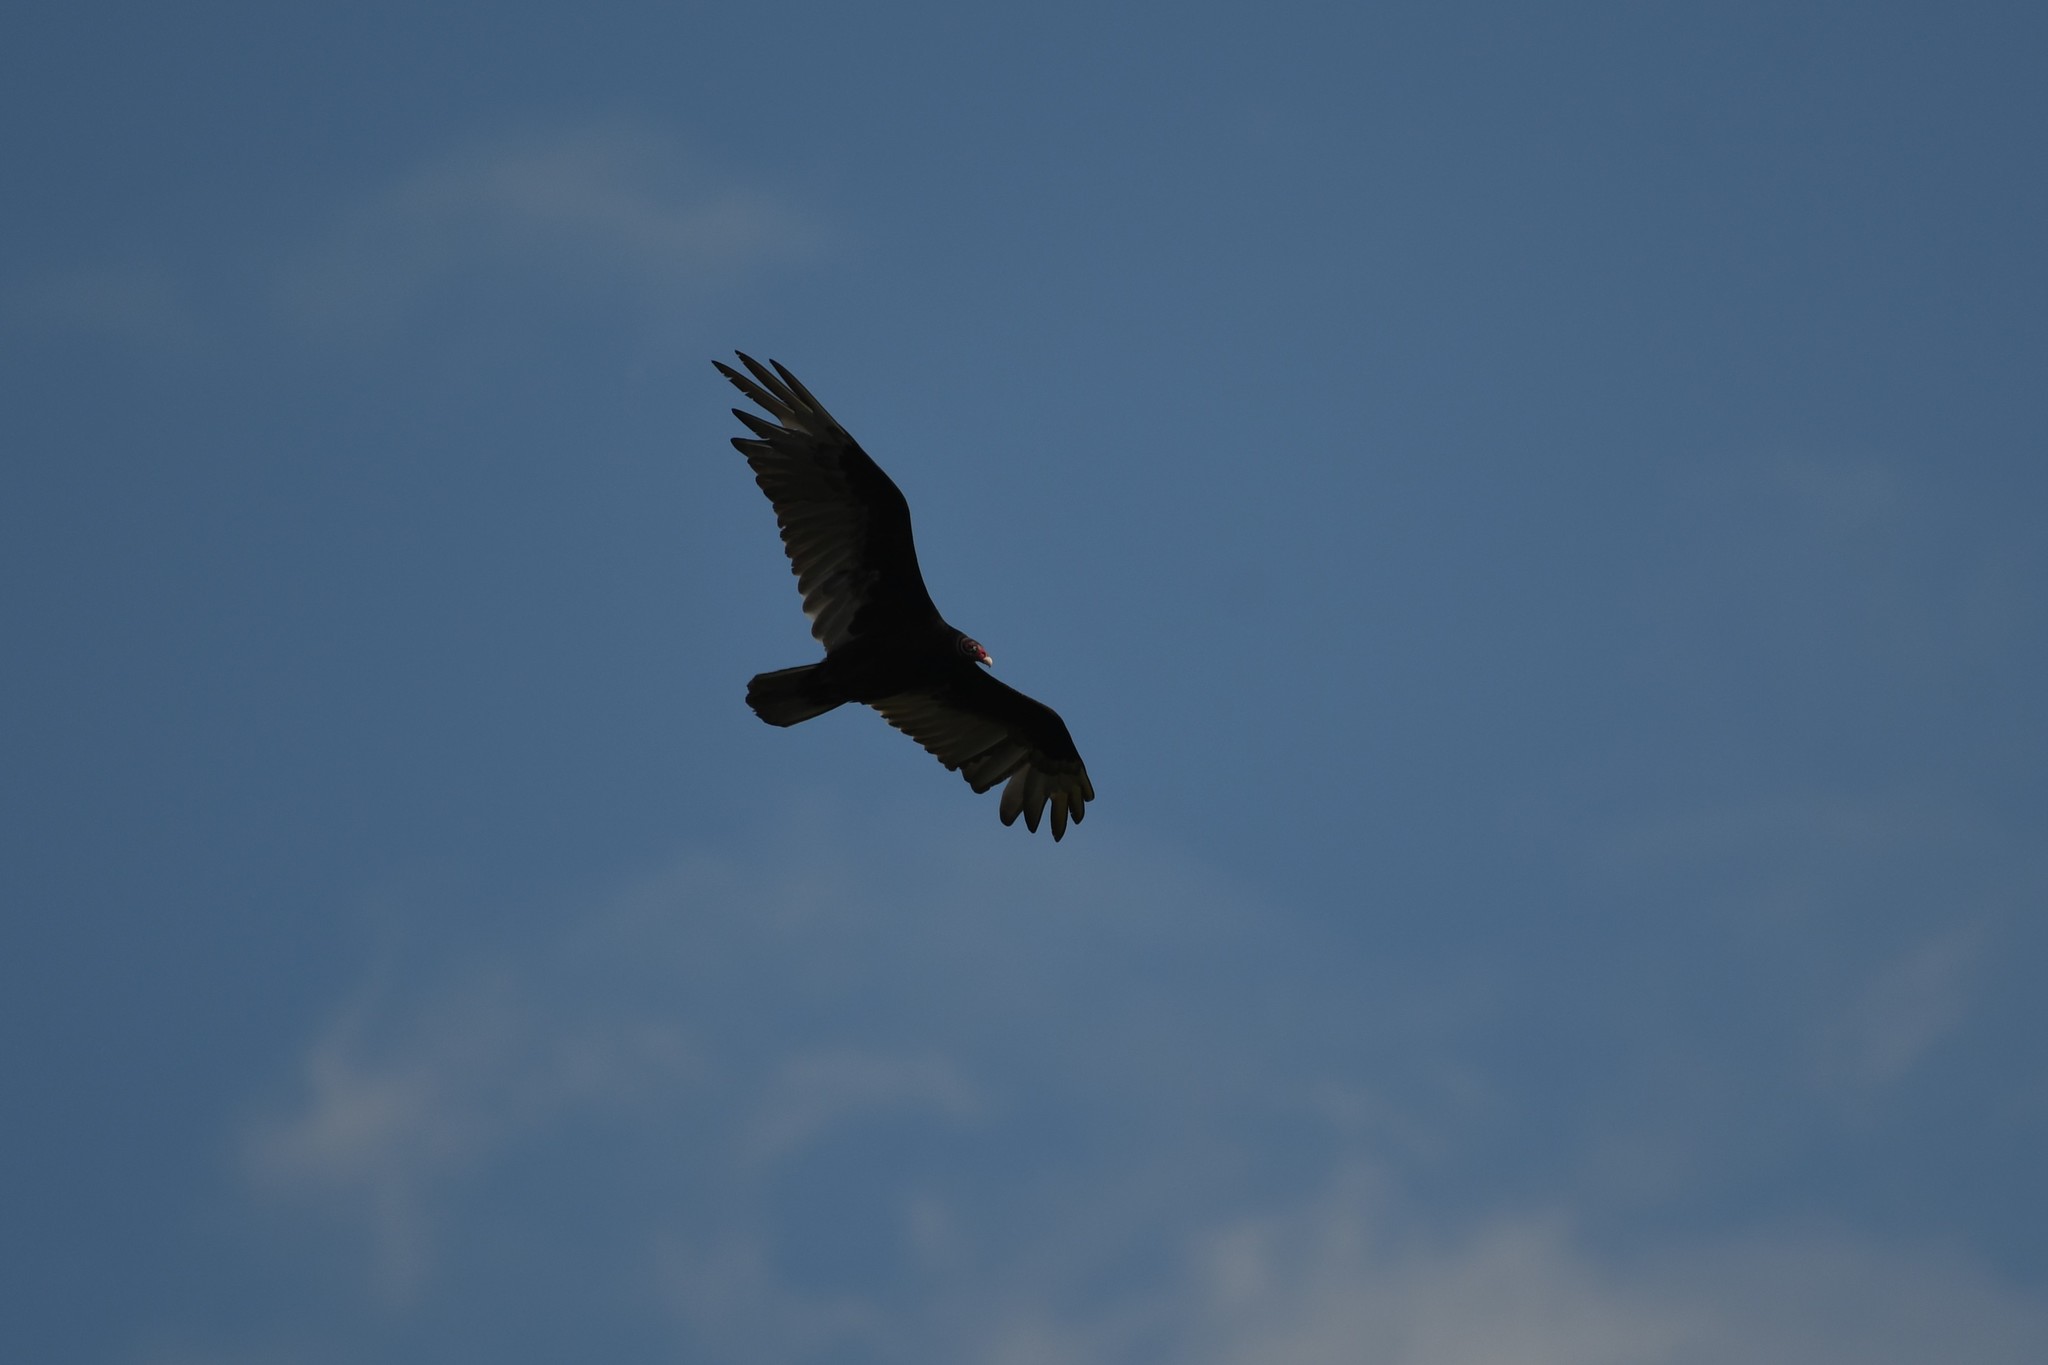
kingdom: Animalia
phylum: Chordata
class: Aves
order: Accipitriformes
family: Cathartidae
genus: Cathartes
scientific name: Cathartes aura
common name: Turkey vulture
